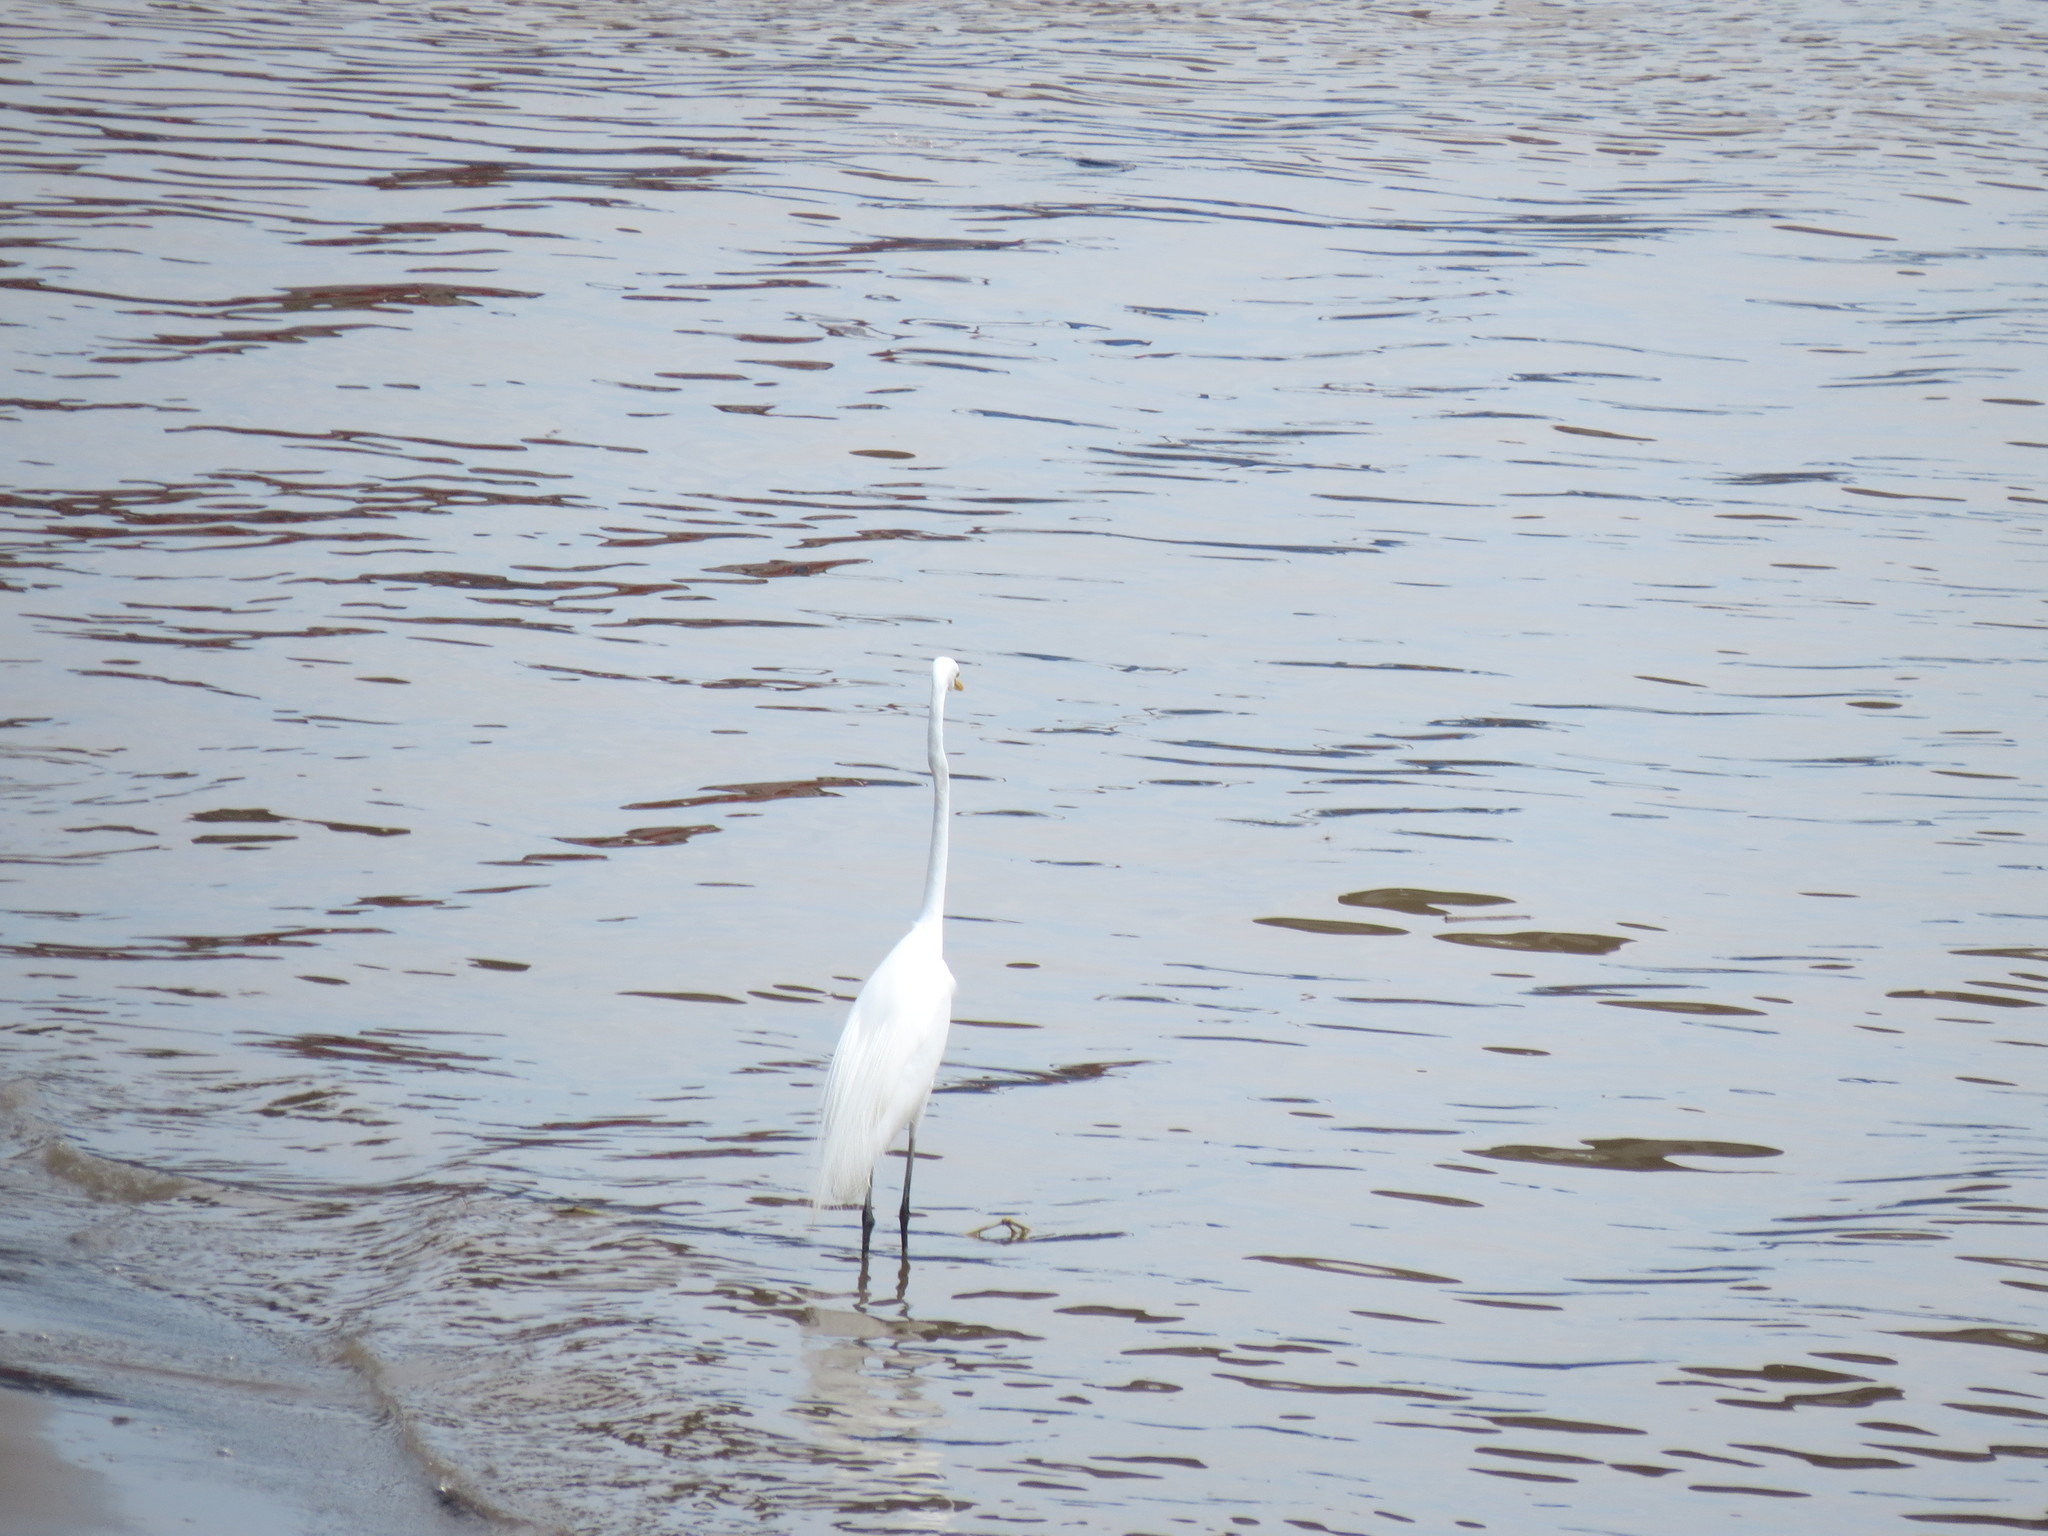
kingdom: Animalia
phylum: Chordata
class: Aves
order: Pelecaniformes
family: Ardeidae
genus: Ardea
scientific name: Ardea alba
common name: Great egret
